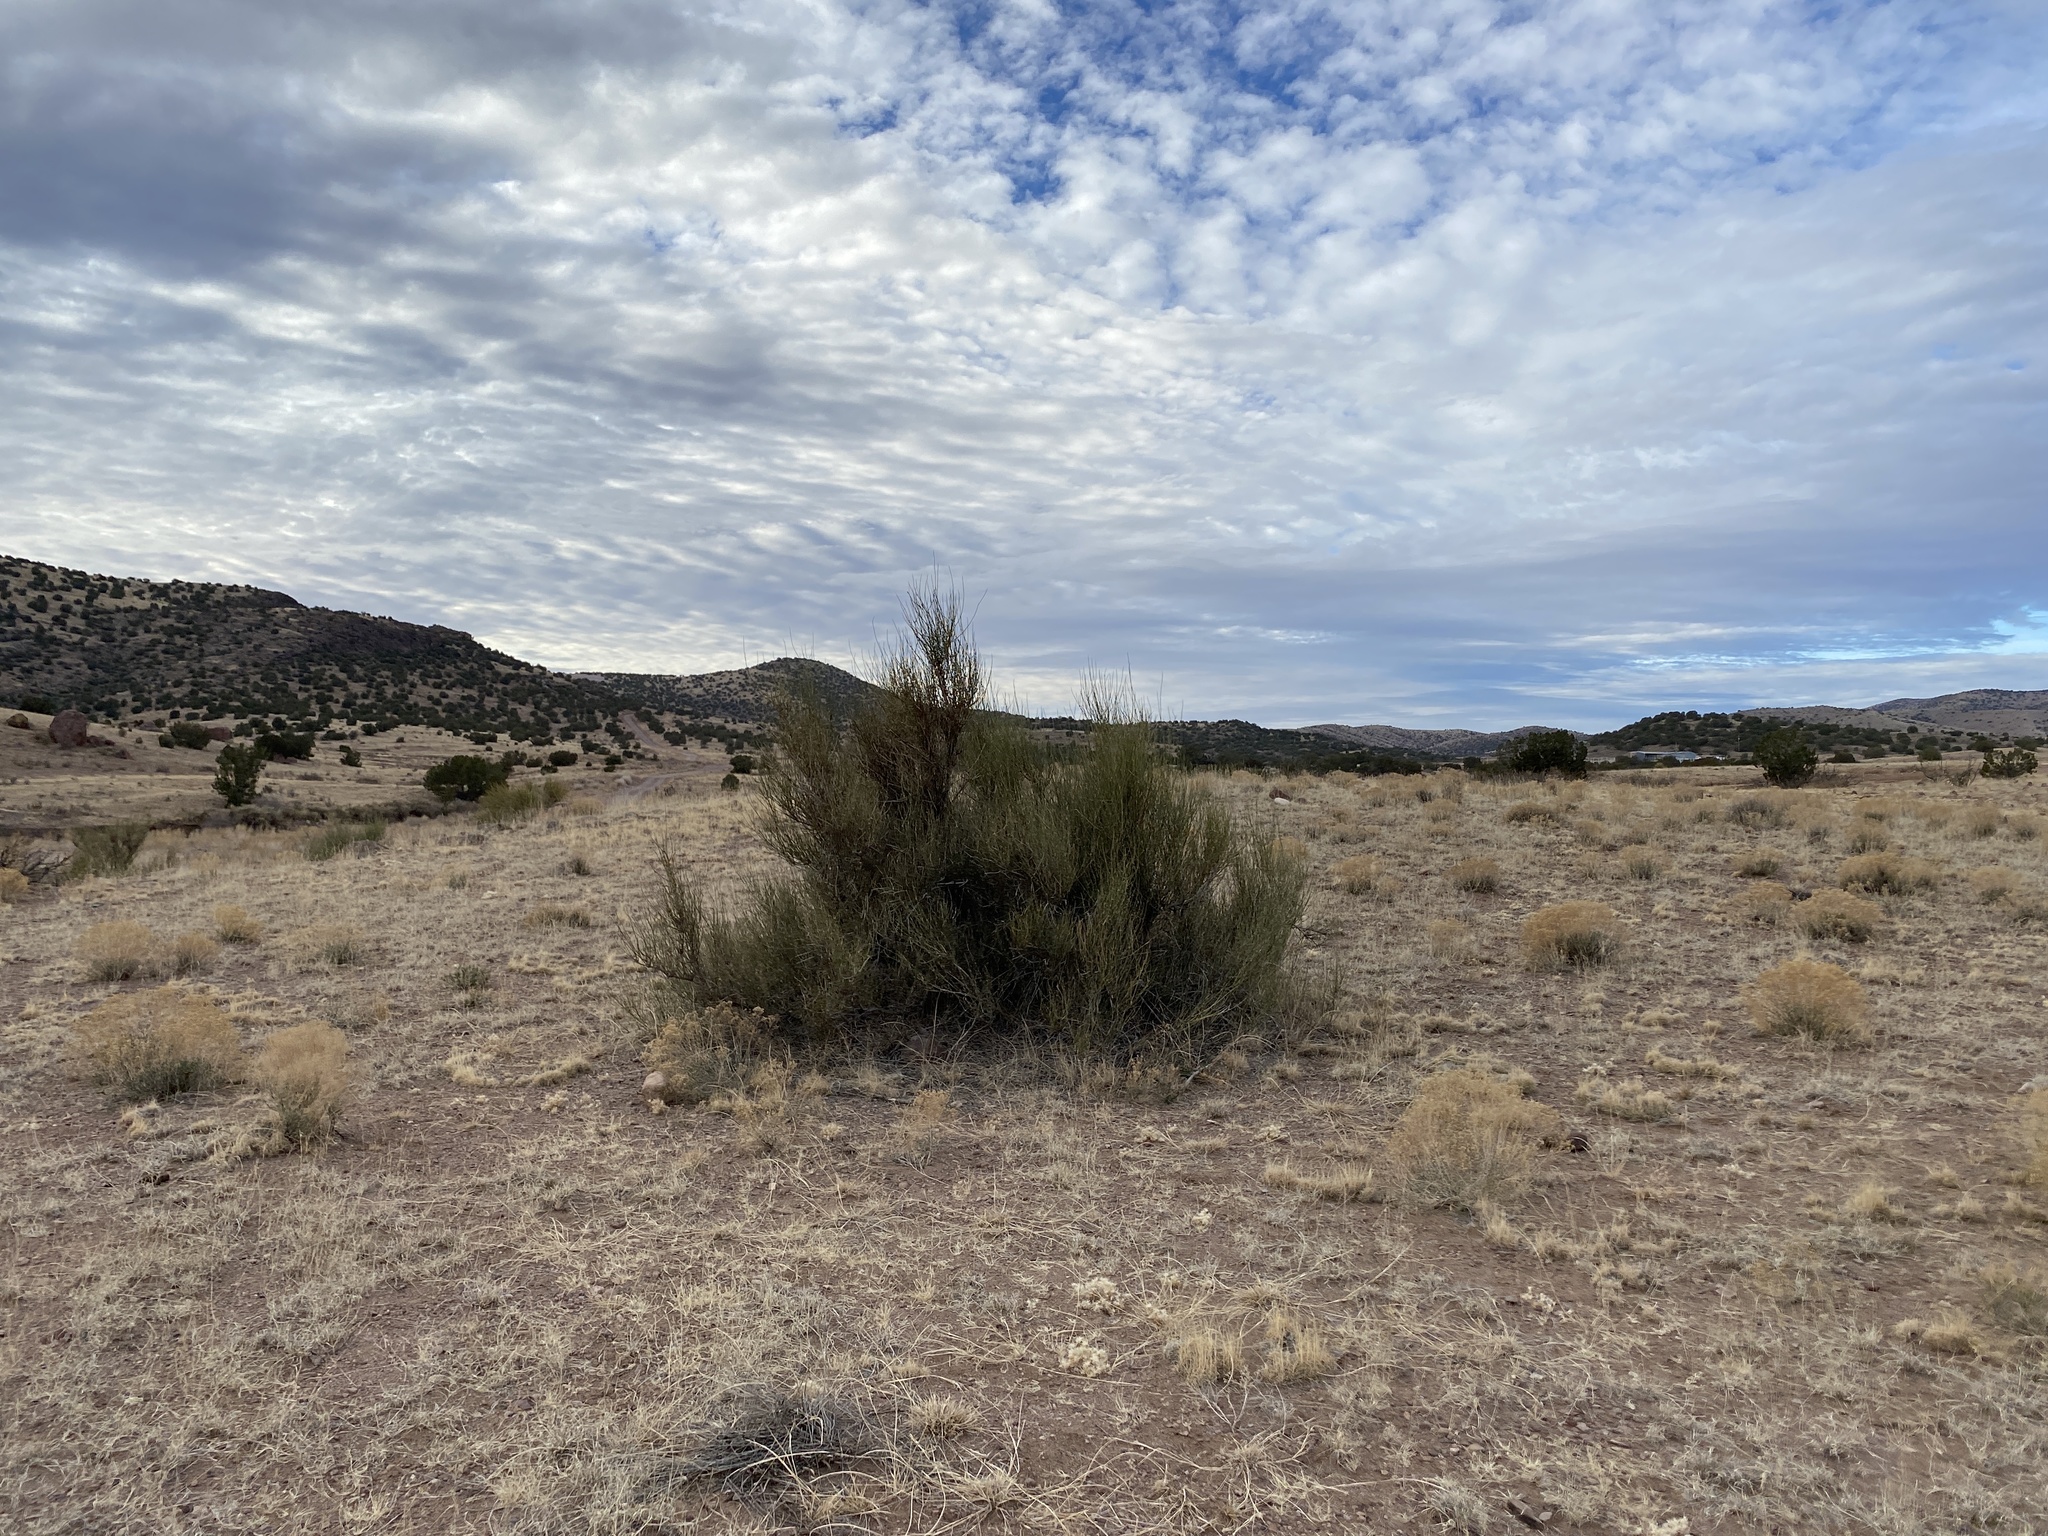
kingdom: Plantae
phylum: Tracheophyta
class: Gnetopsida
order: Ephedrales
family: Ephedraceae
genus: Ephedra
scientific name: Ephedra trifurca
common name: Mexican-tea
